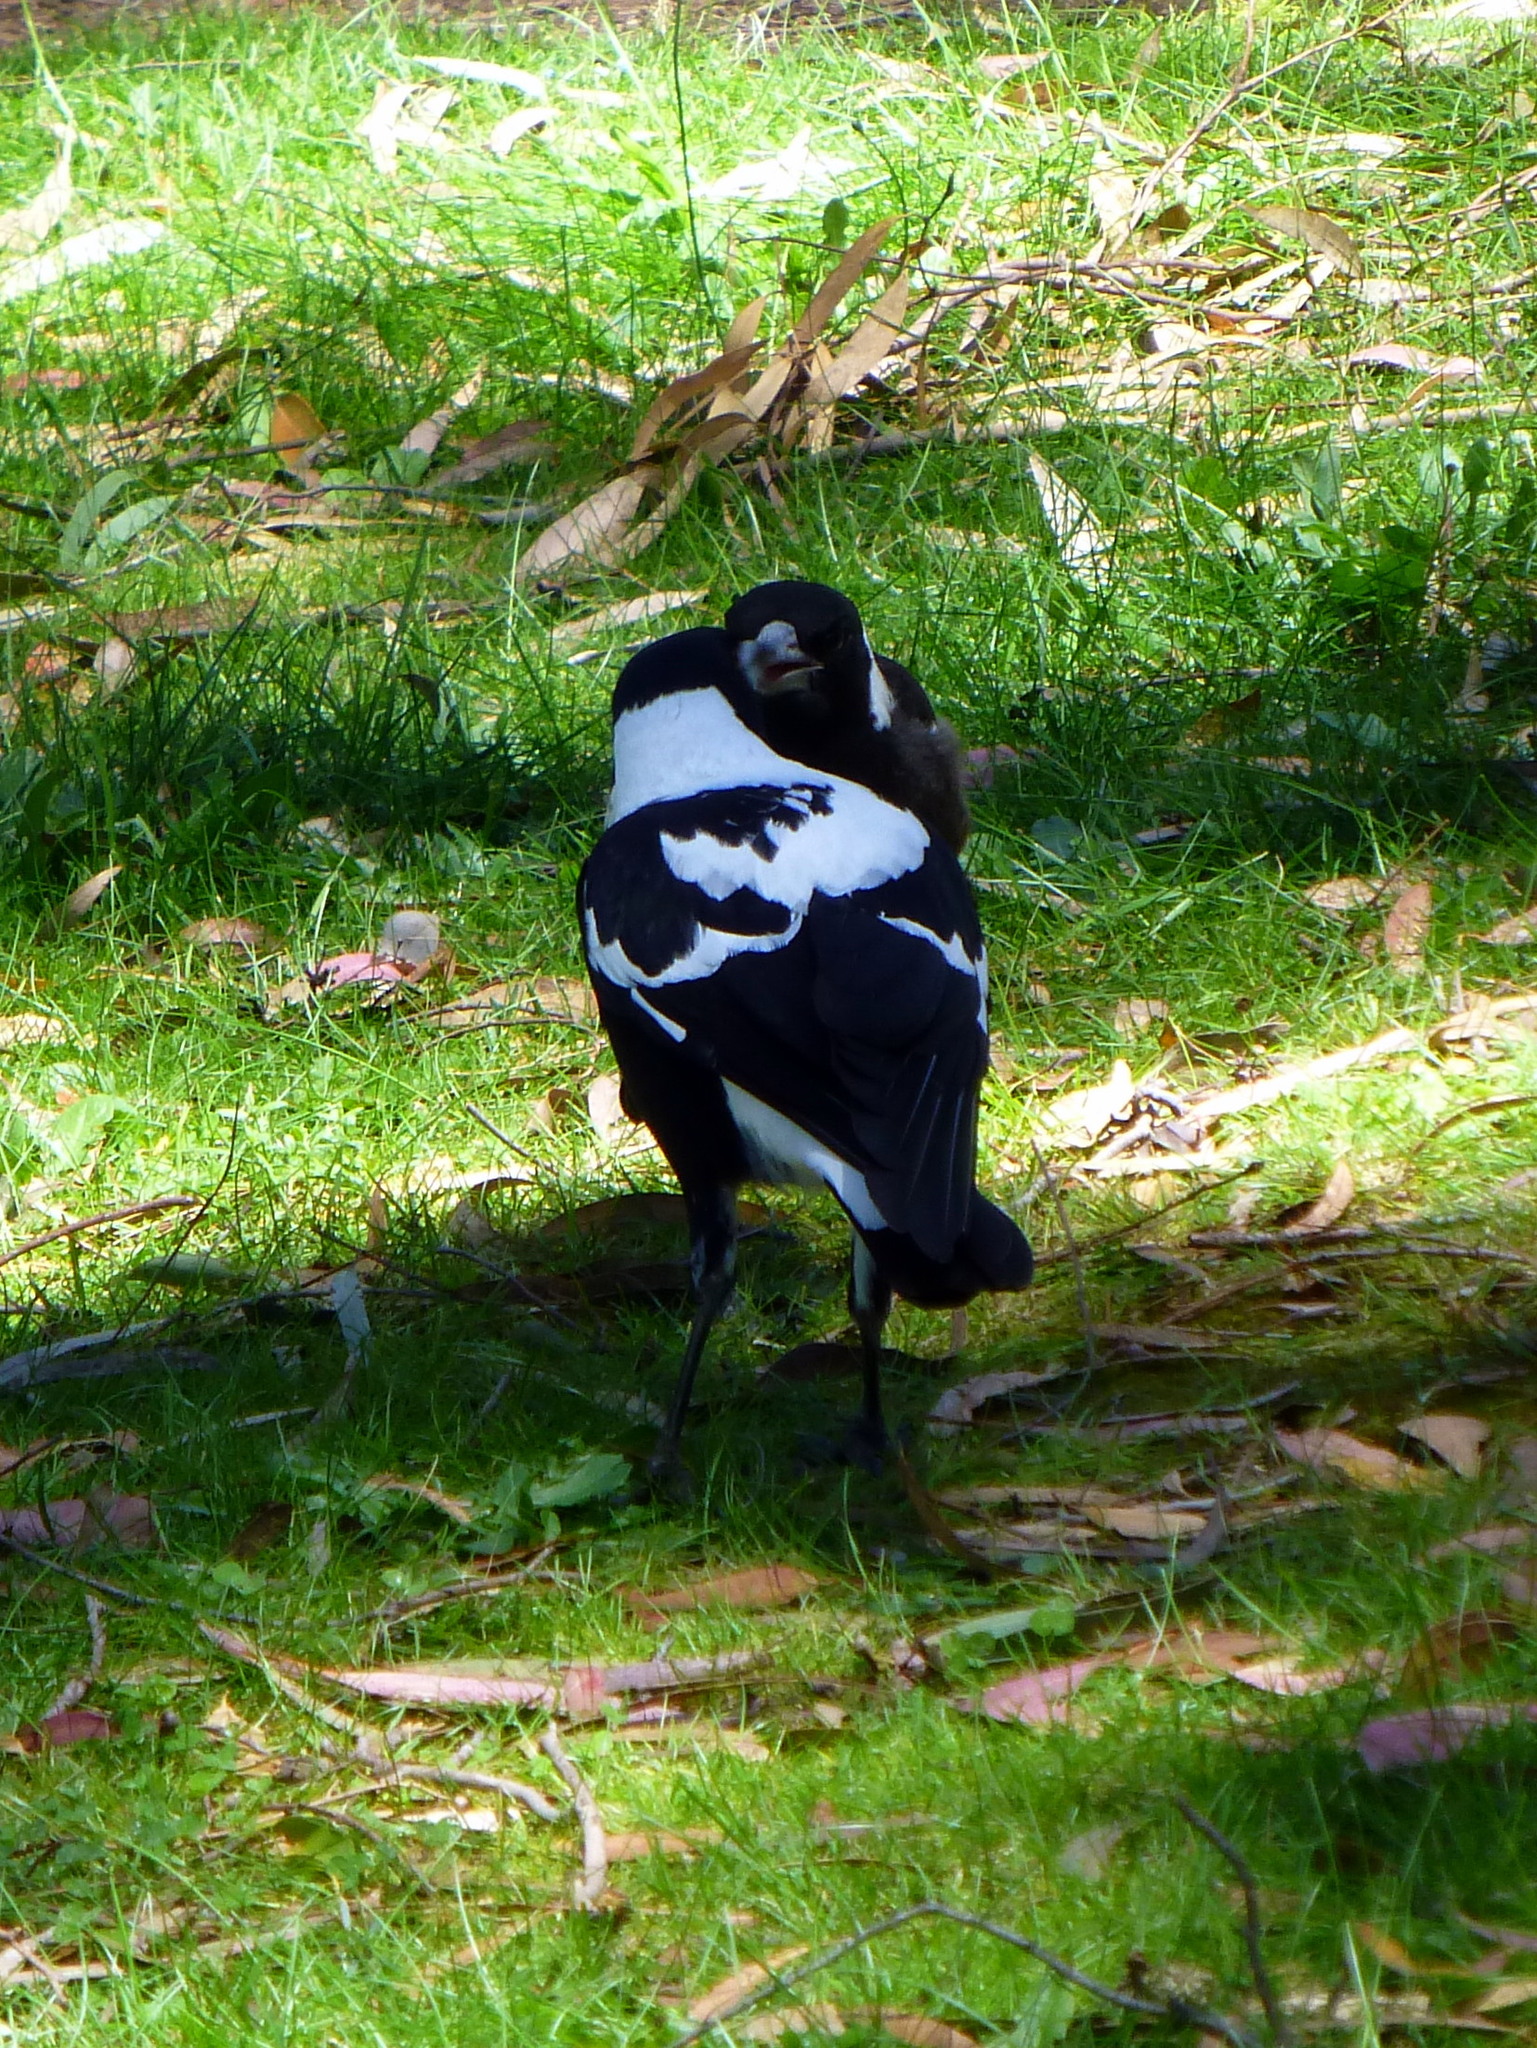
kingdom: Animalia
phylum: Chordata
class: Aves
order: Passeriformes
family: Cracticidae
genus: Gymnorhina
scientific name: Gymnorhina tibicen
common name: Australian magpie
